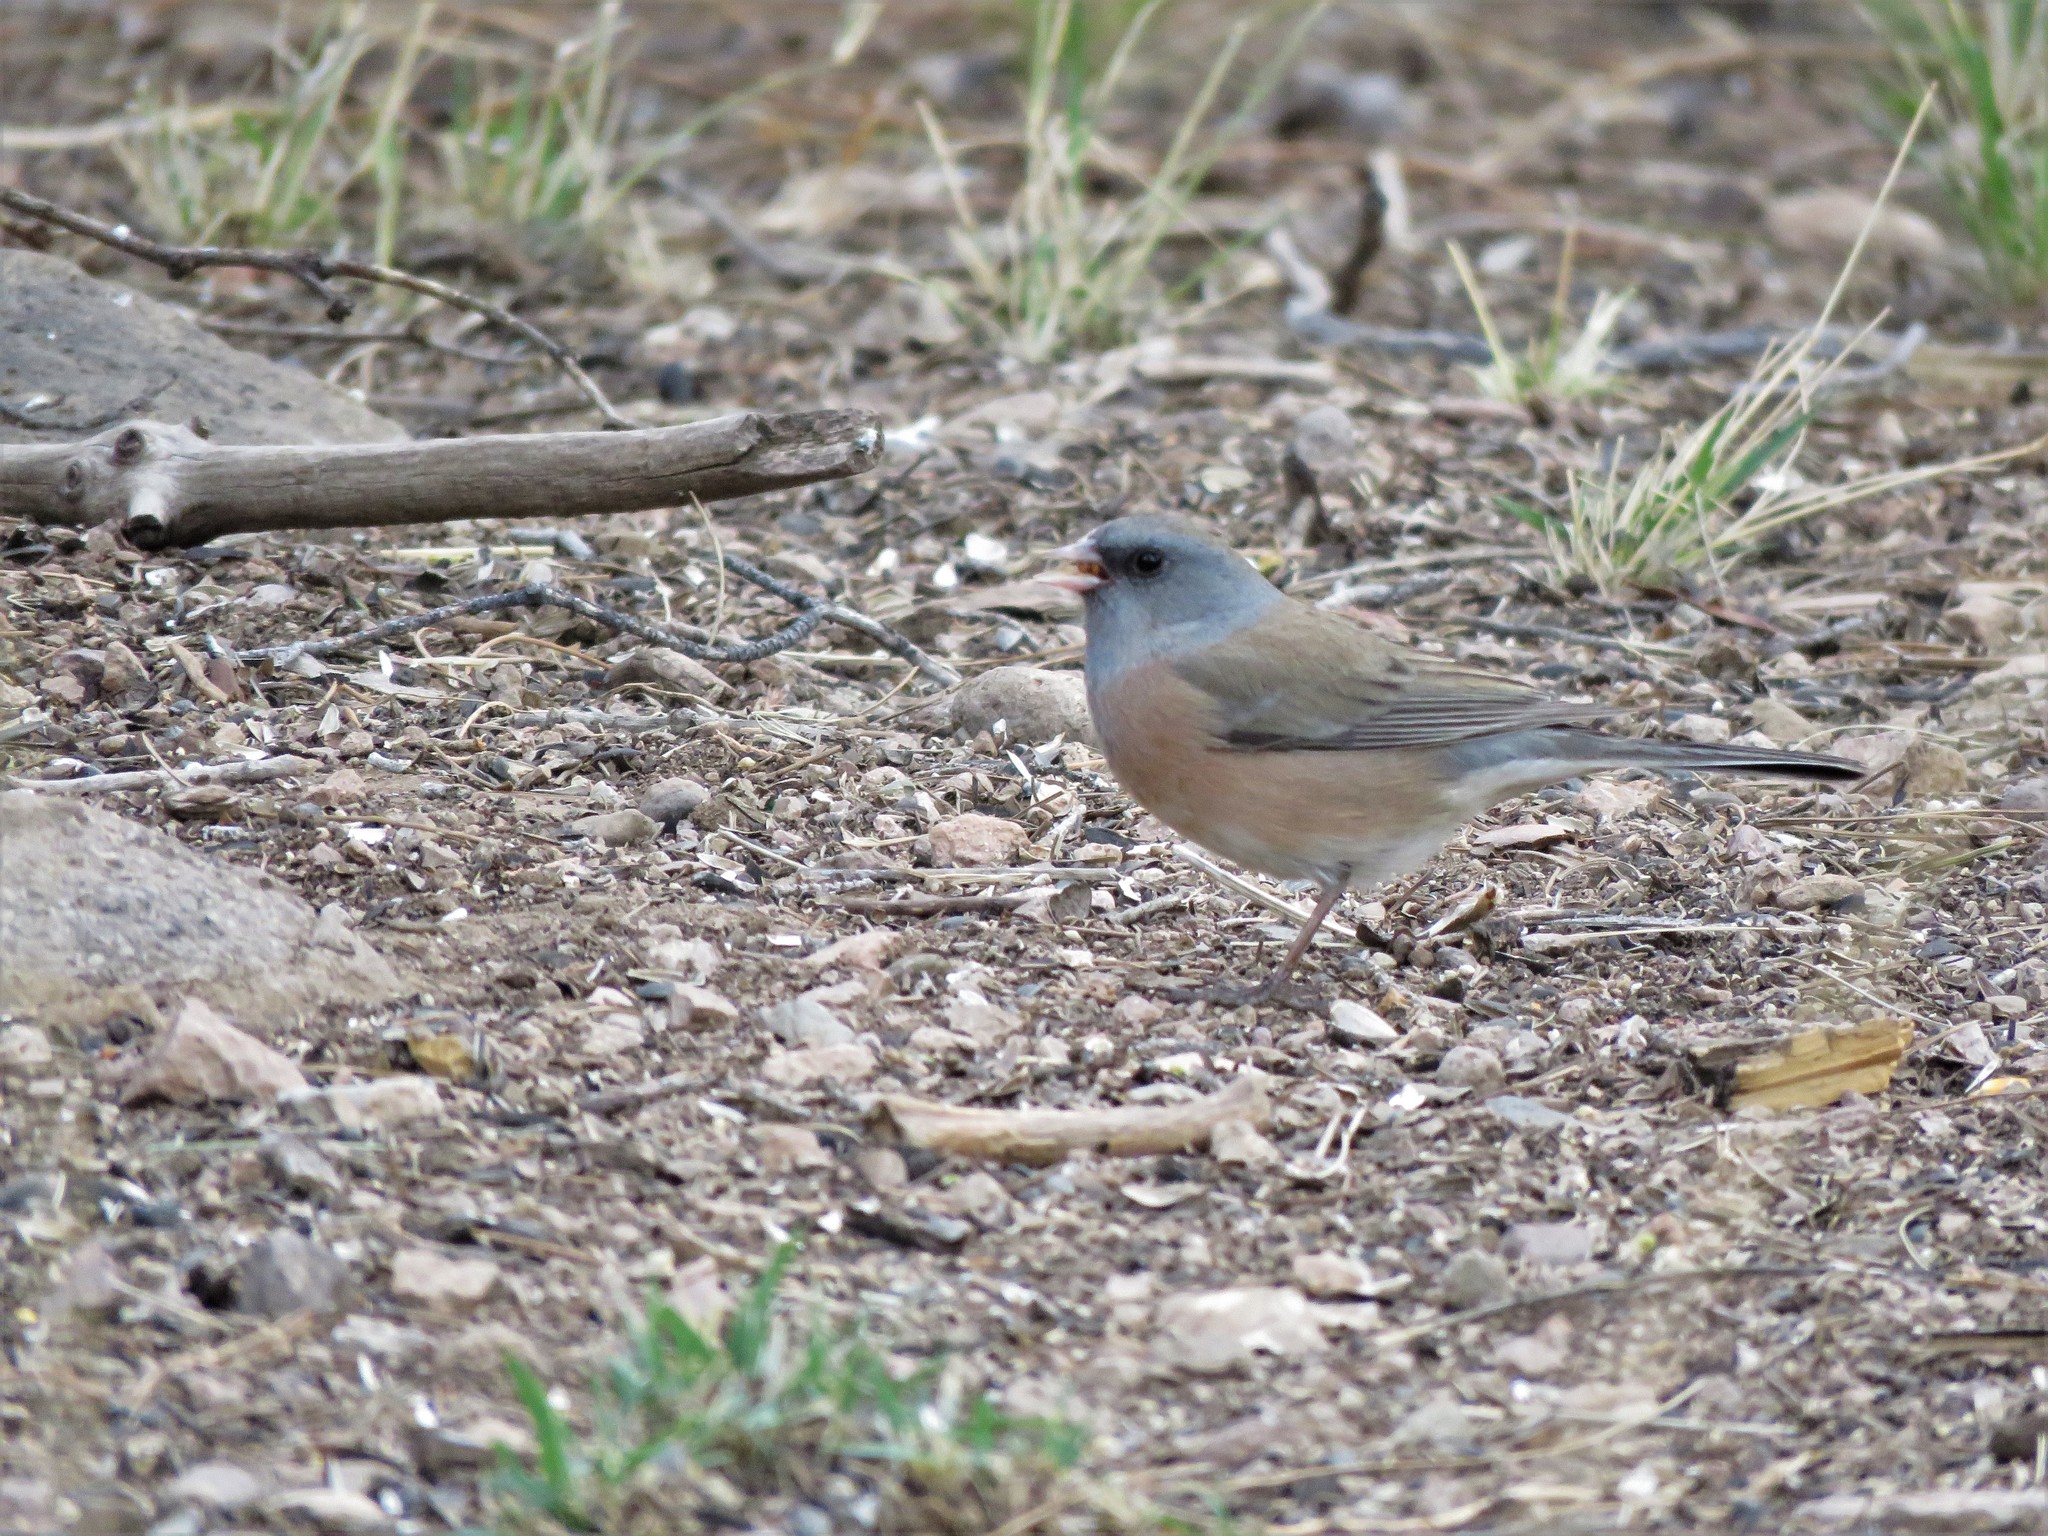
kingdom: Animalia
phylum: Chordata
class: Aves
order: Passeriformes
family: Passerellidae
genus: Junco
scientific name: Junco hyemalis
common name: Dark-eyed junco
